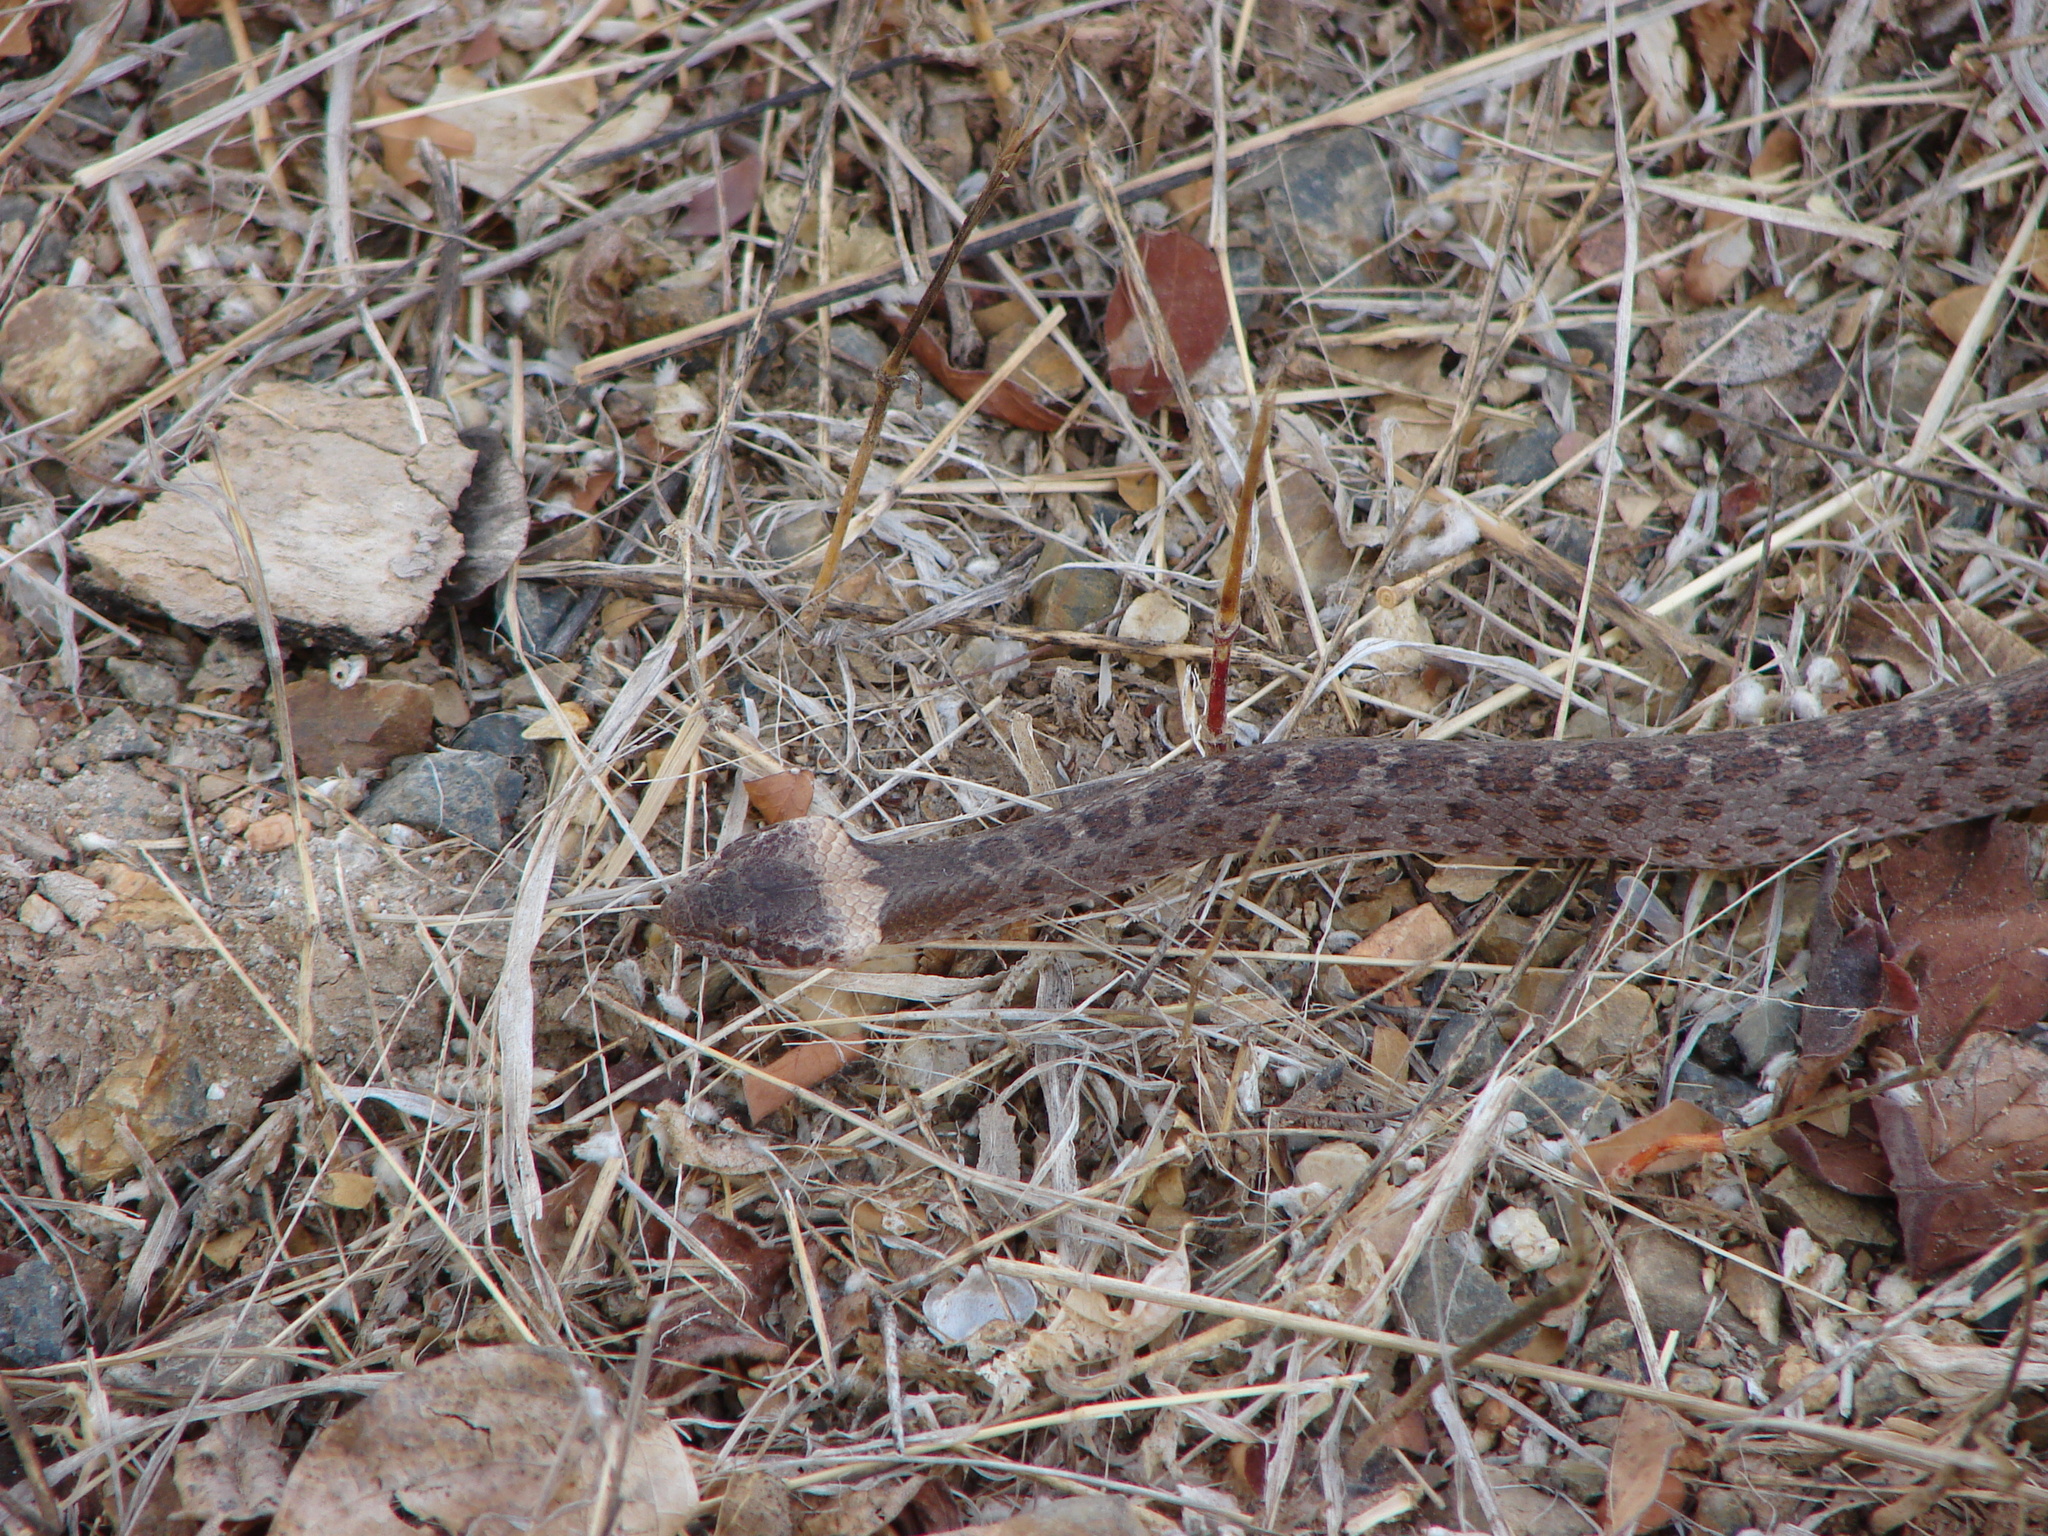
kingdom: Animalia
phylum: Chordata
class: Squamata
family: Colubridae
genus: Hypsiglena
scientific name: Hypsiglena torquata
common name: Night snake
